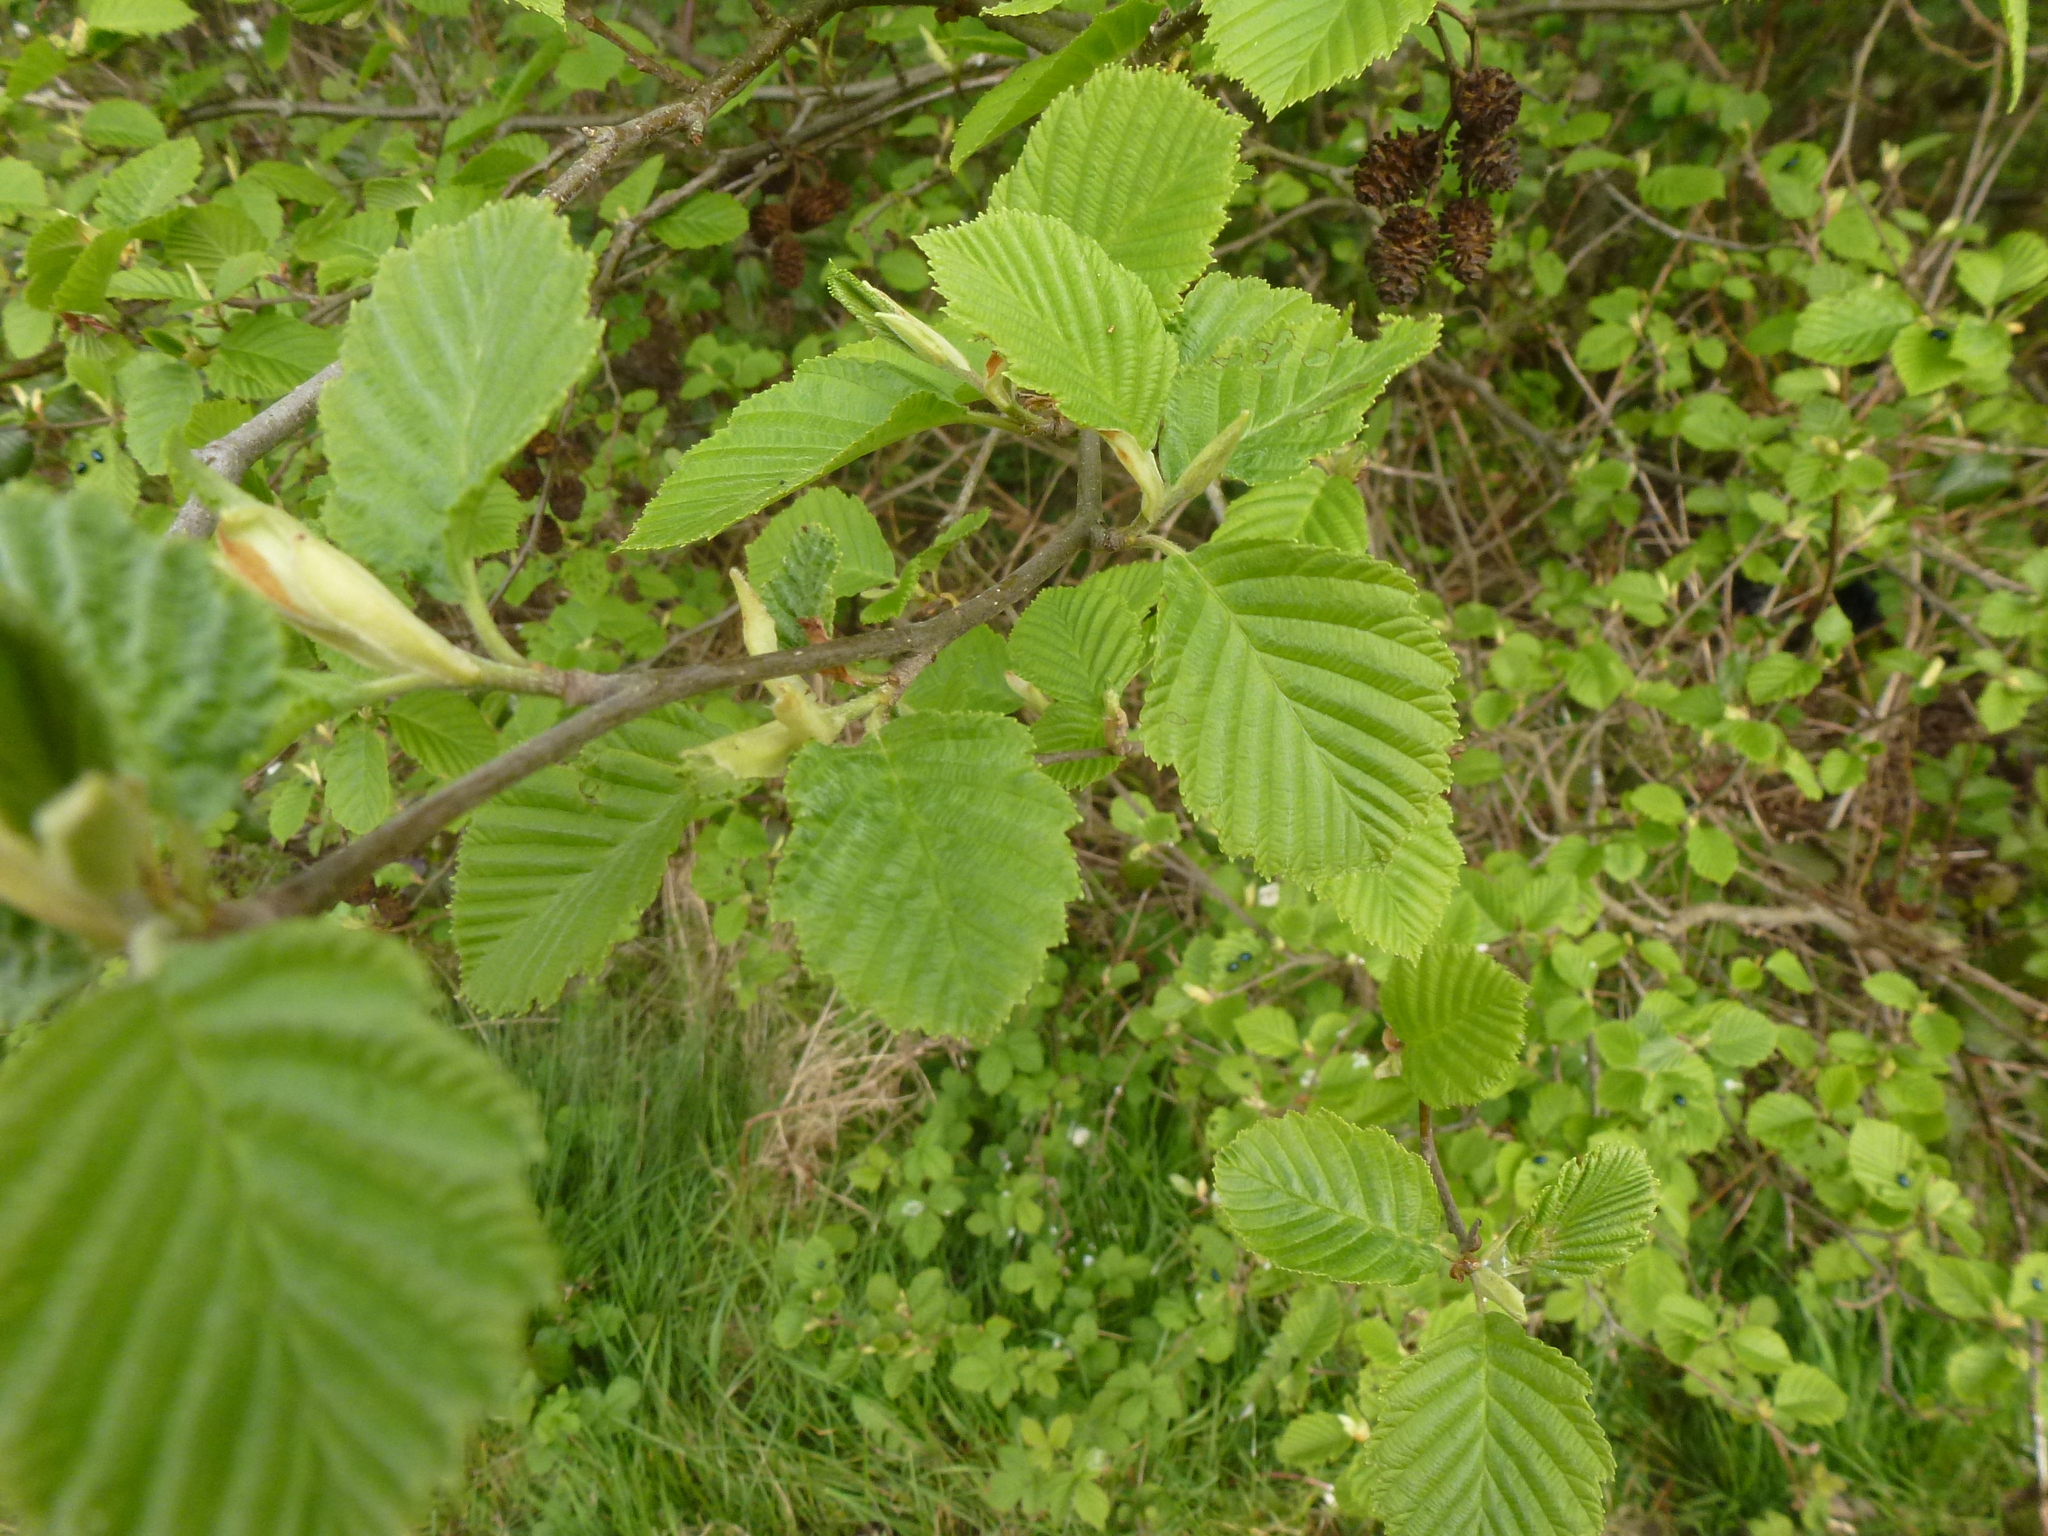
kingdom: Plantae
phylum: Tracheophyta
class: Magnoliopsida
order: Fagales
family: Betulaceae
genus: Alnus
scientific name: Alnus incana
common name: Grey alder
